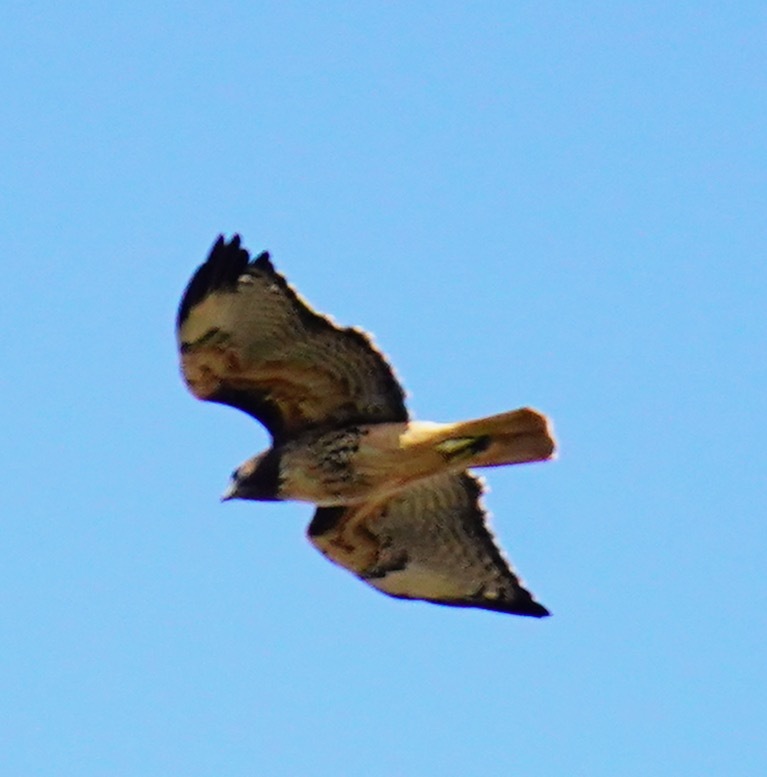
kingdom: Animalia
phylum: Chordata
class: Aves
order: Accipitriformes
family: Accipitridae
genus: Buteo
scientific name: Buteo jamaicensis
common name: Red-tailed hawk
